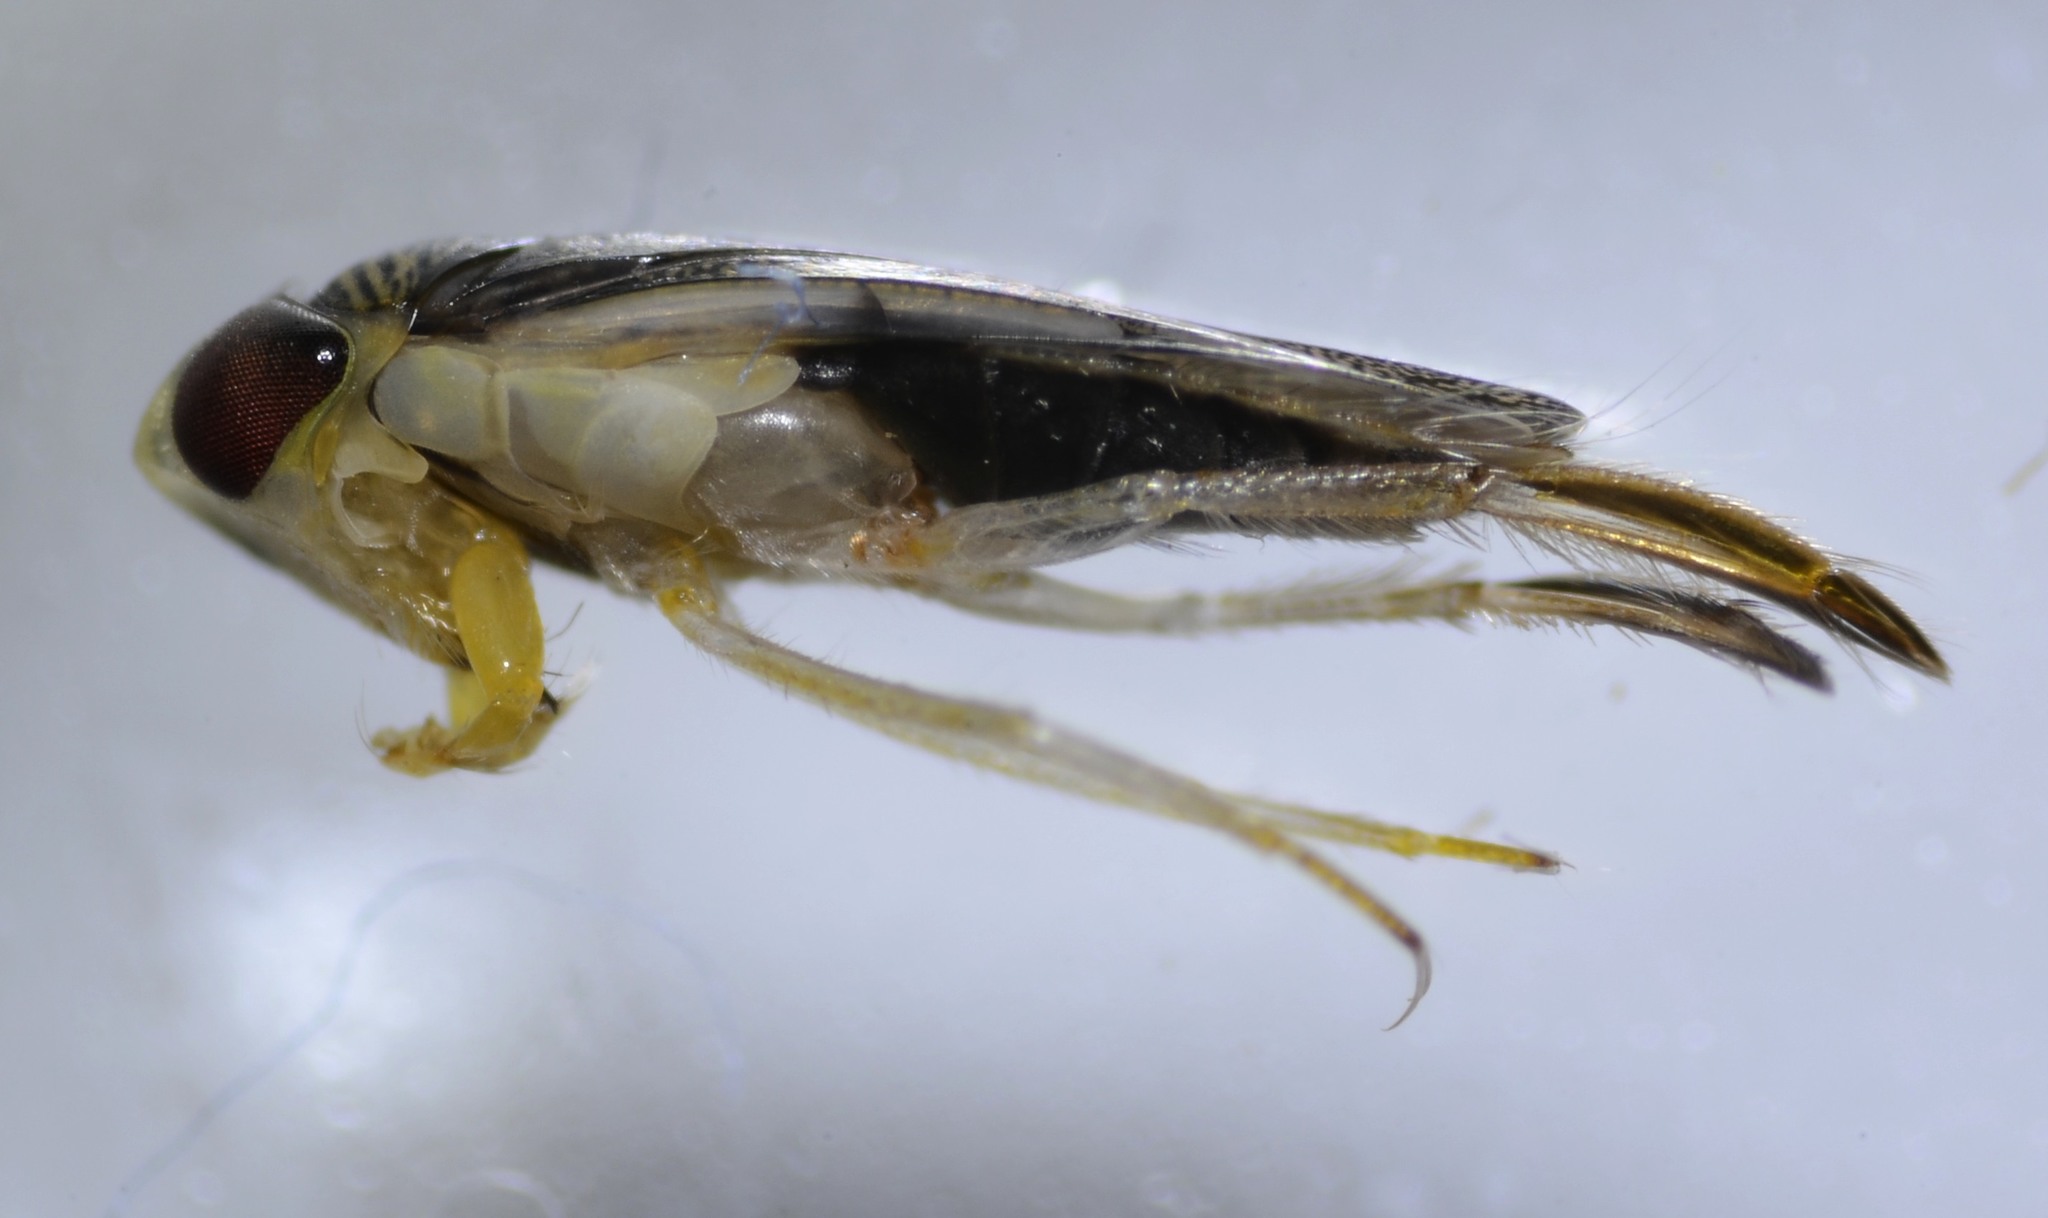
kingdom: Animalia
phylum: Arthropoda
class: Insecta
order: Hemiptera
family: Corixidae
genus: Corisella
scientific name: Corisella
